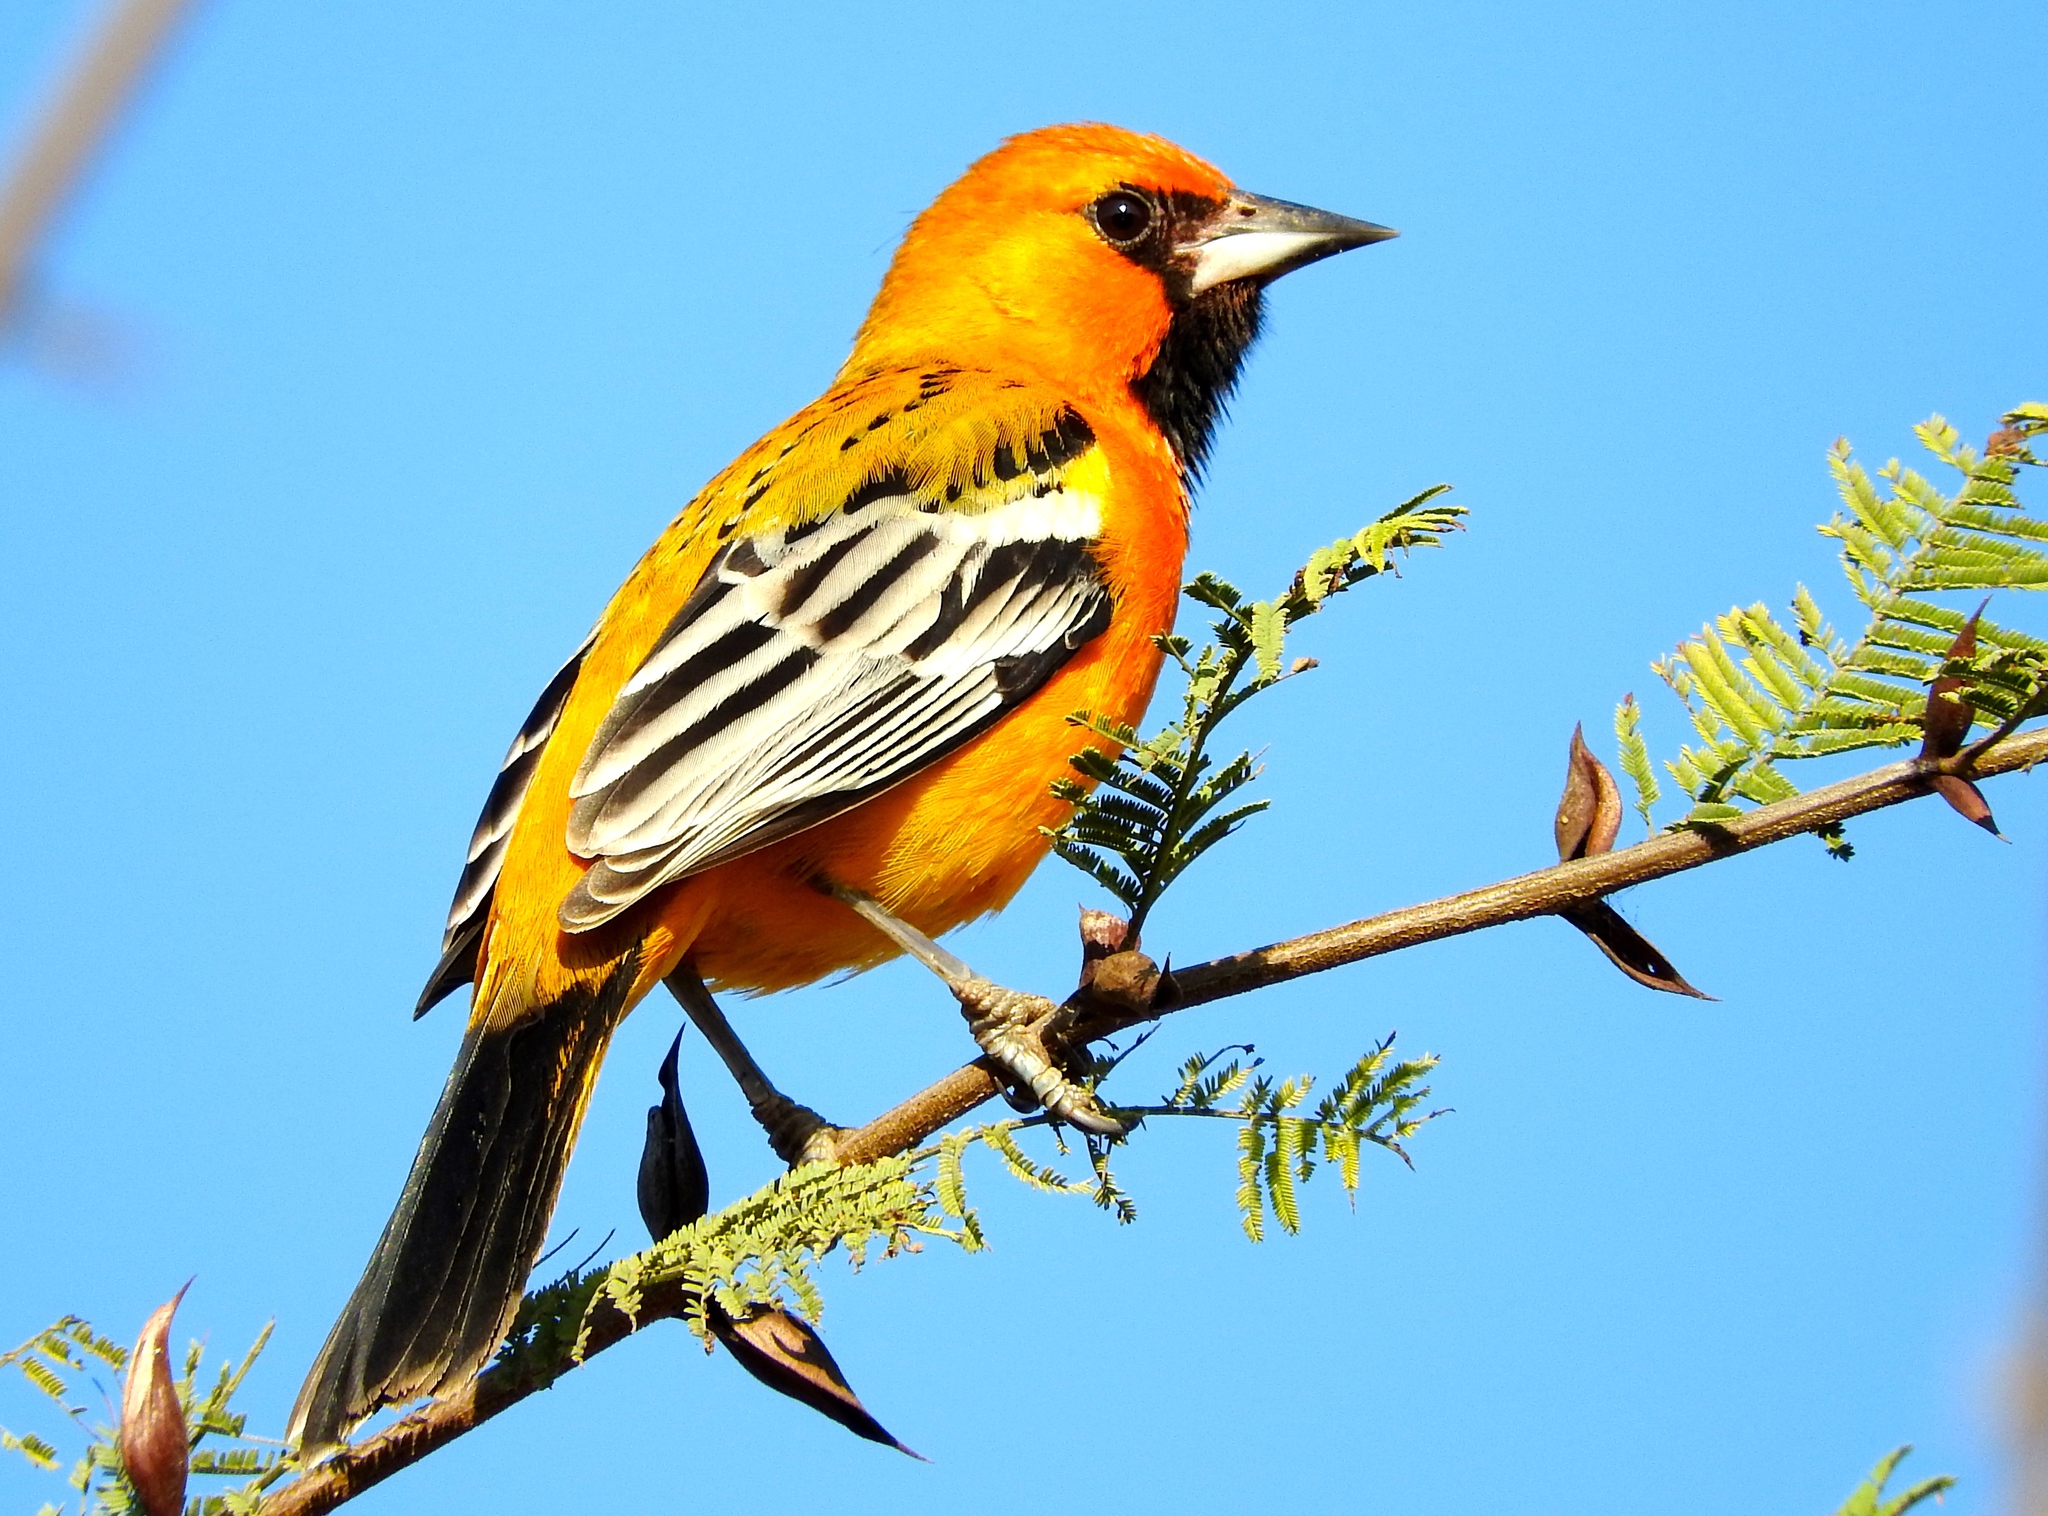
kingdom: Animalia
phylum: Chordata
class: Aves
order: Passeriformes
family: Icteridae
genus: Icterus
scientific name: Icterus pustulatus
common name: Streak-backed oriole
